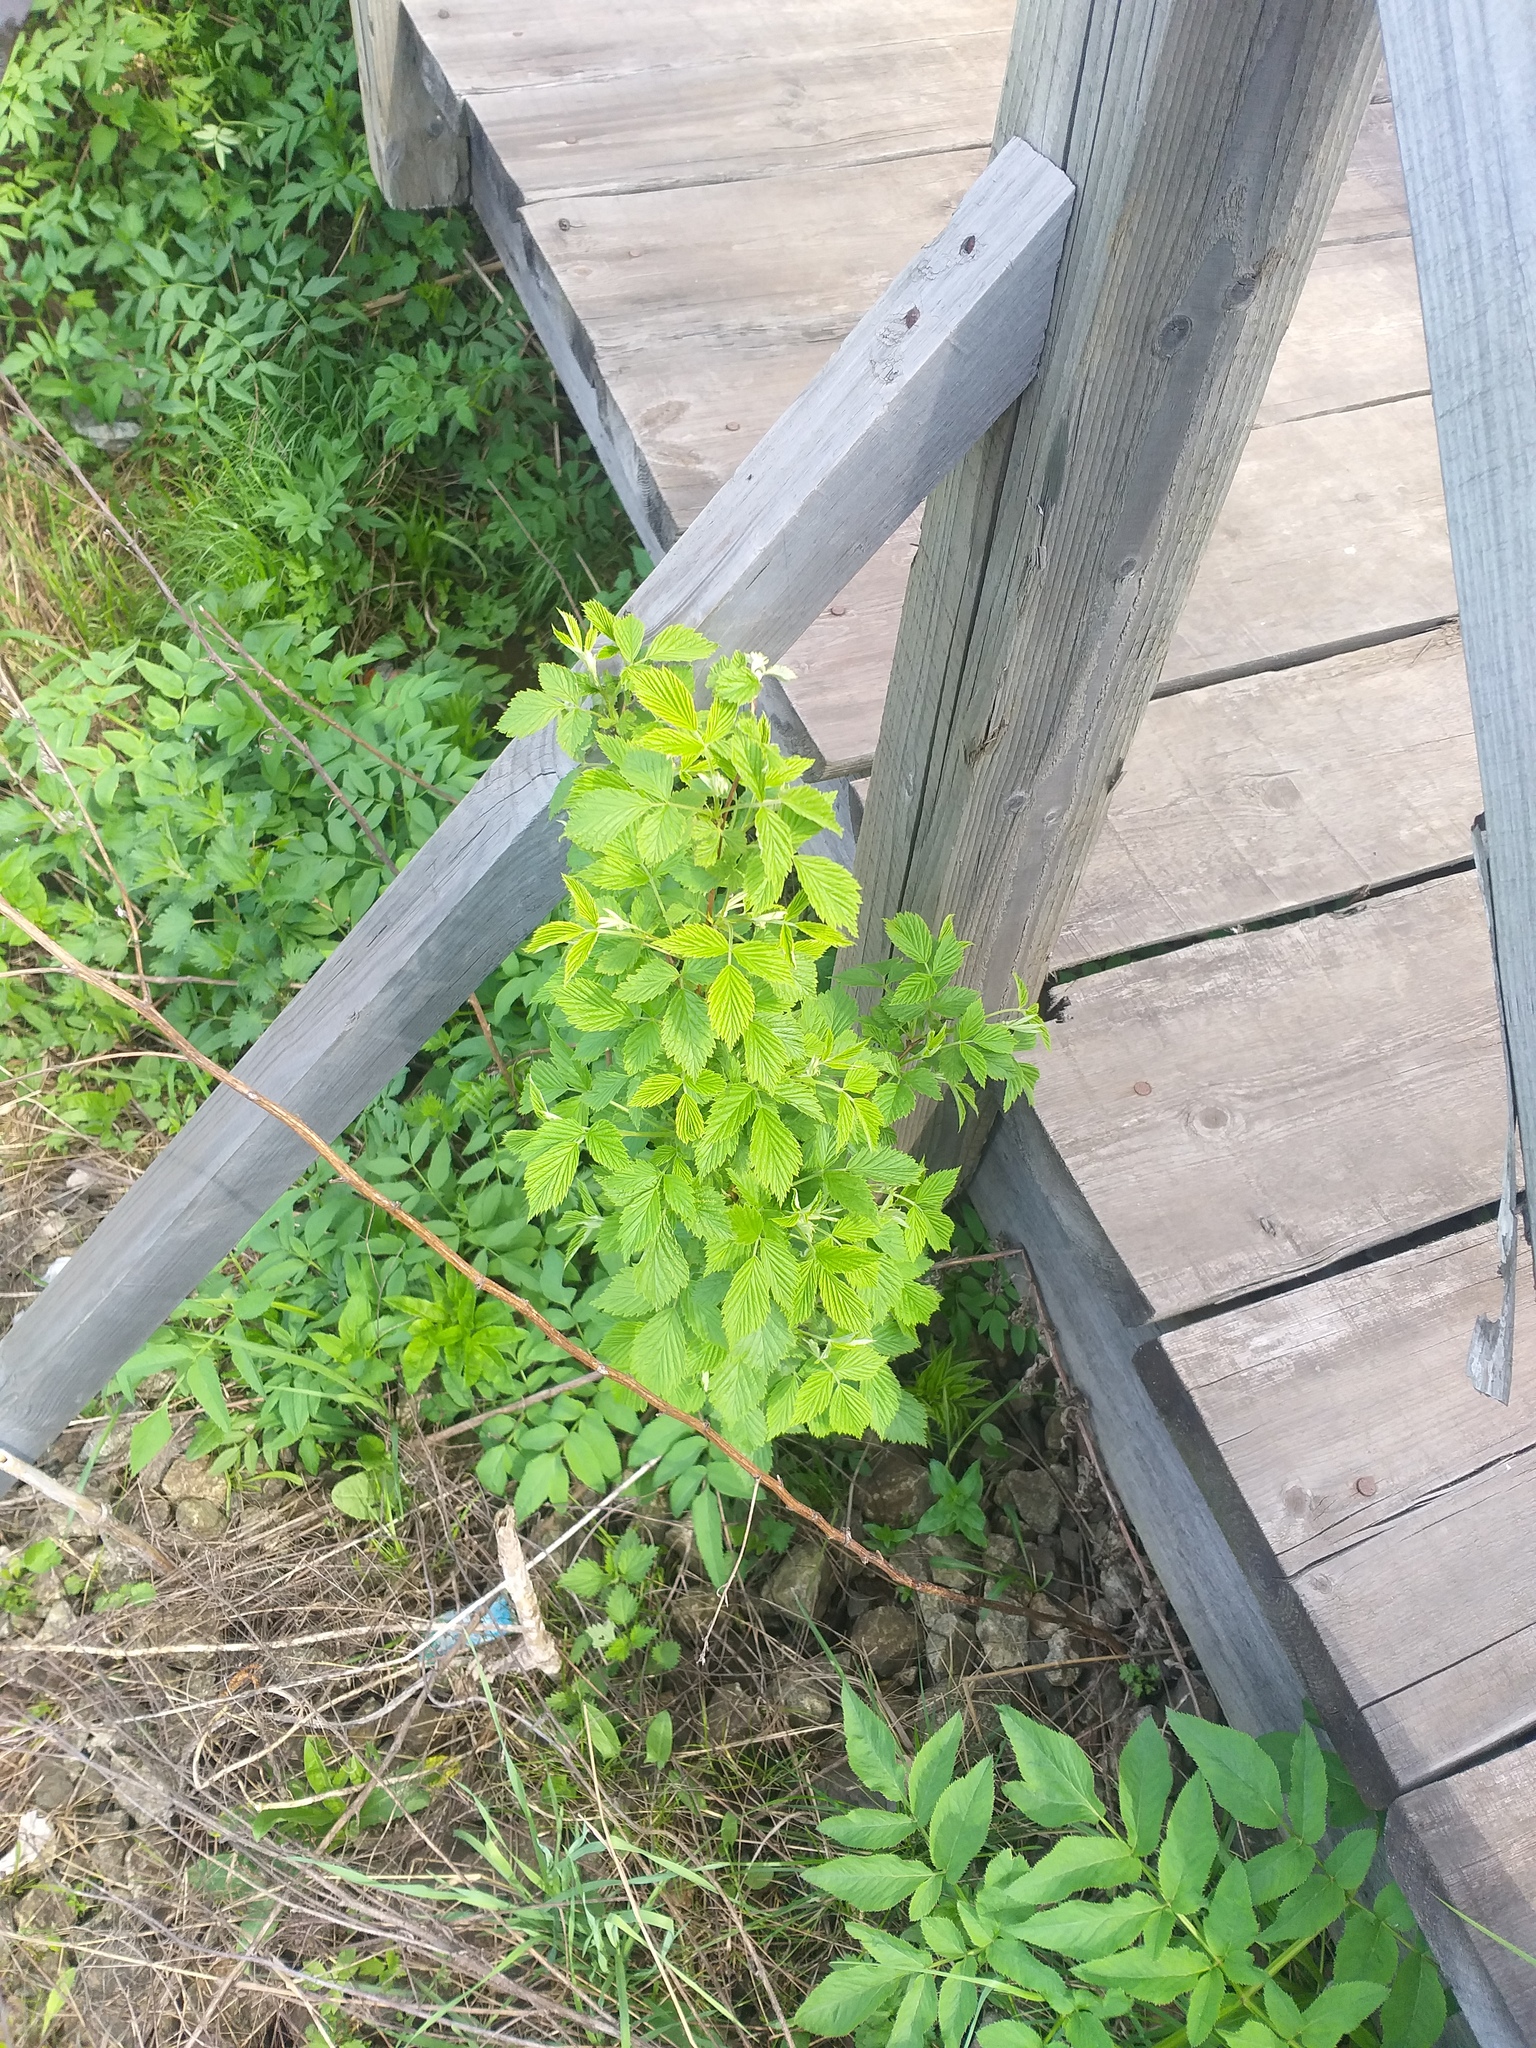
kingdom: Plantae
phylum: Tracheophyta
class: Magnoliopsida
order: Rosales
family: Rosaceae
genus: Rubus
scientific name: Rubus idaeus
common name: Raspberry
